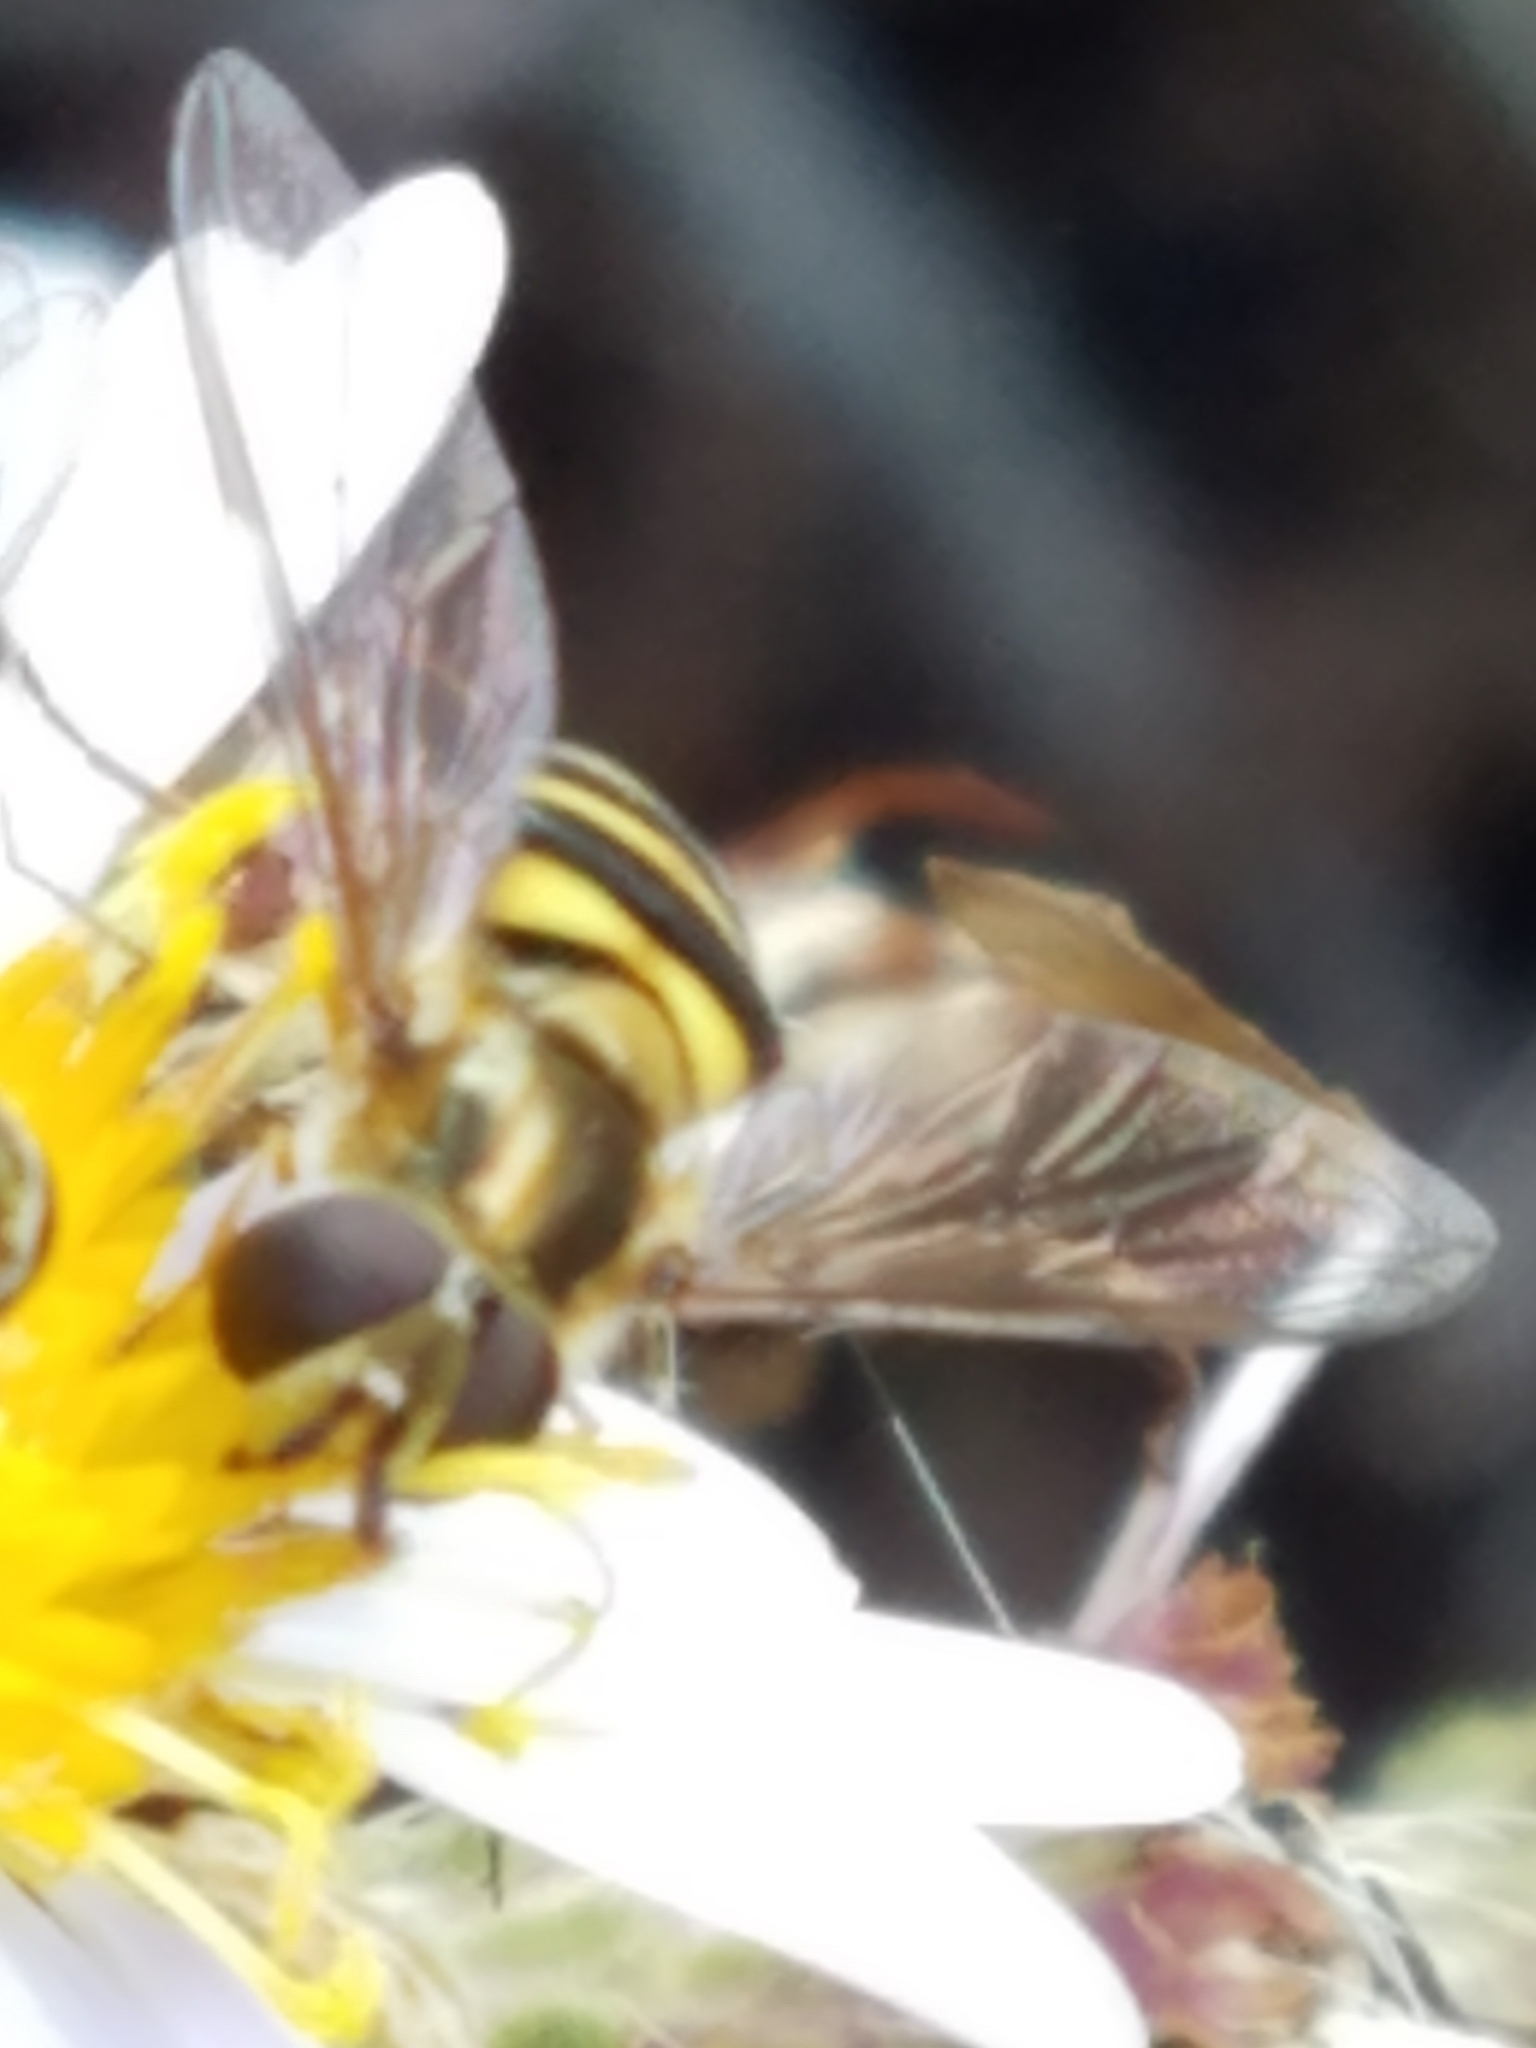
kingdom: Animalia
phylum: Arthropoda
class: Insecta
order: Diptera
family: Syrphidae
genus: Eupeodes
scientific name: Eupeodes
